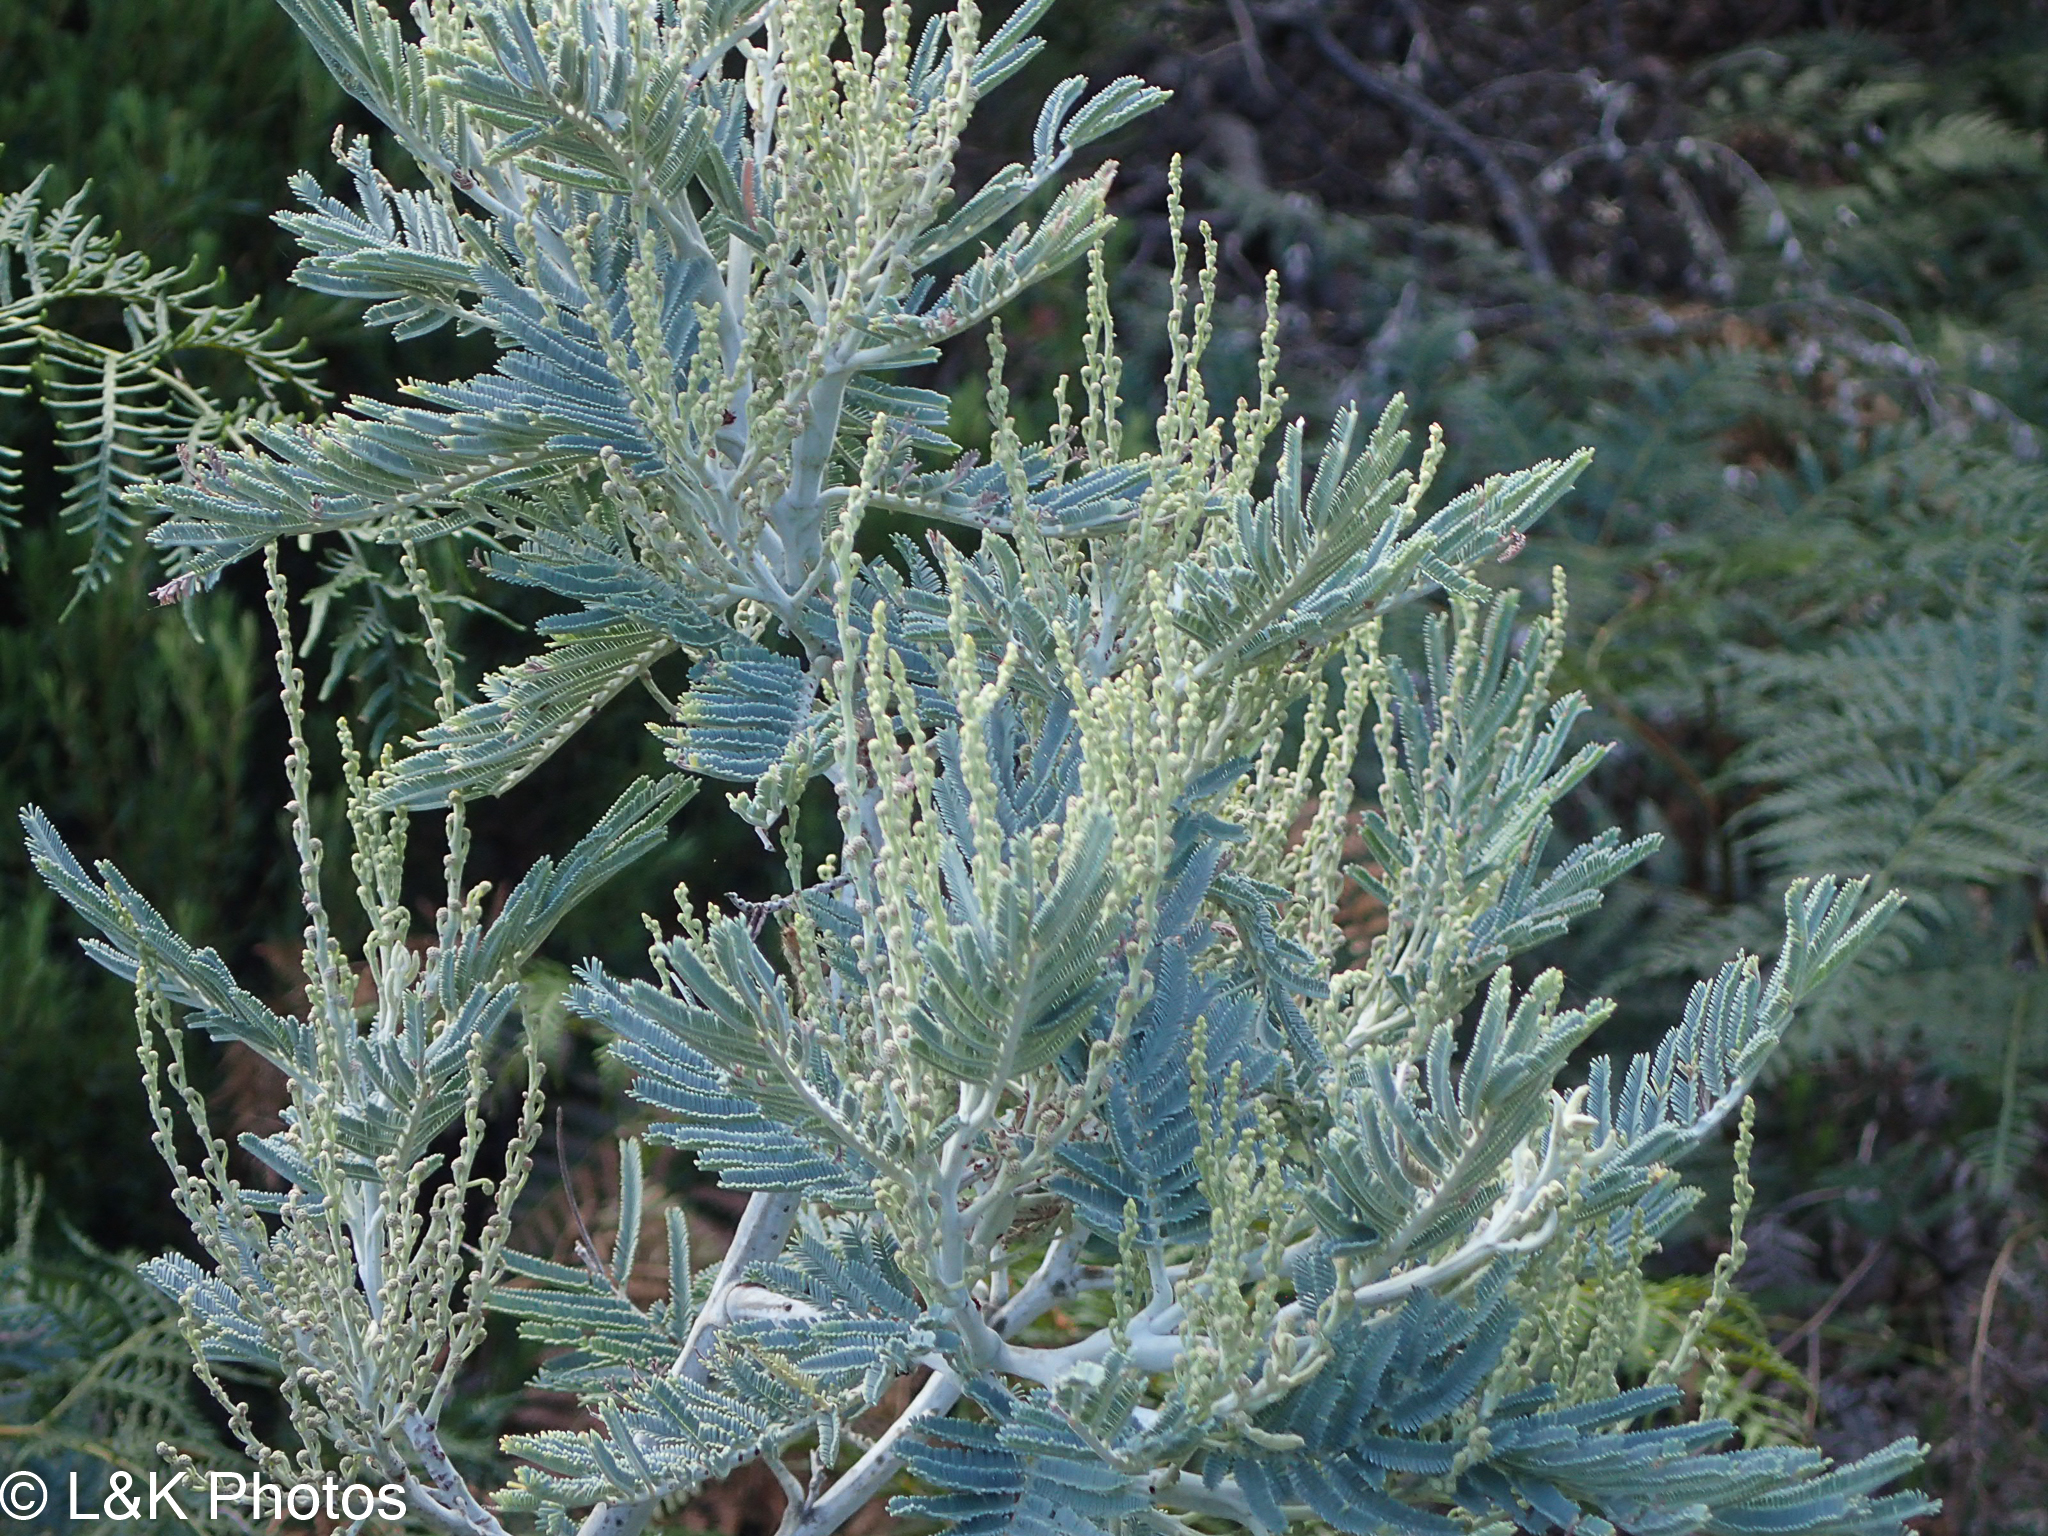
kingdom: Plantae
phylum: Tracheophyta
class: Magnoliopsida
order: Fabales
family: Fabaceae
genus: Acacia
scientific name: Acacia dealbata
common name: Silver wattle
